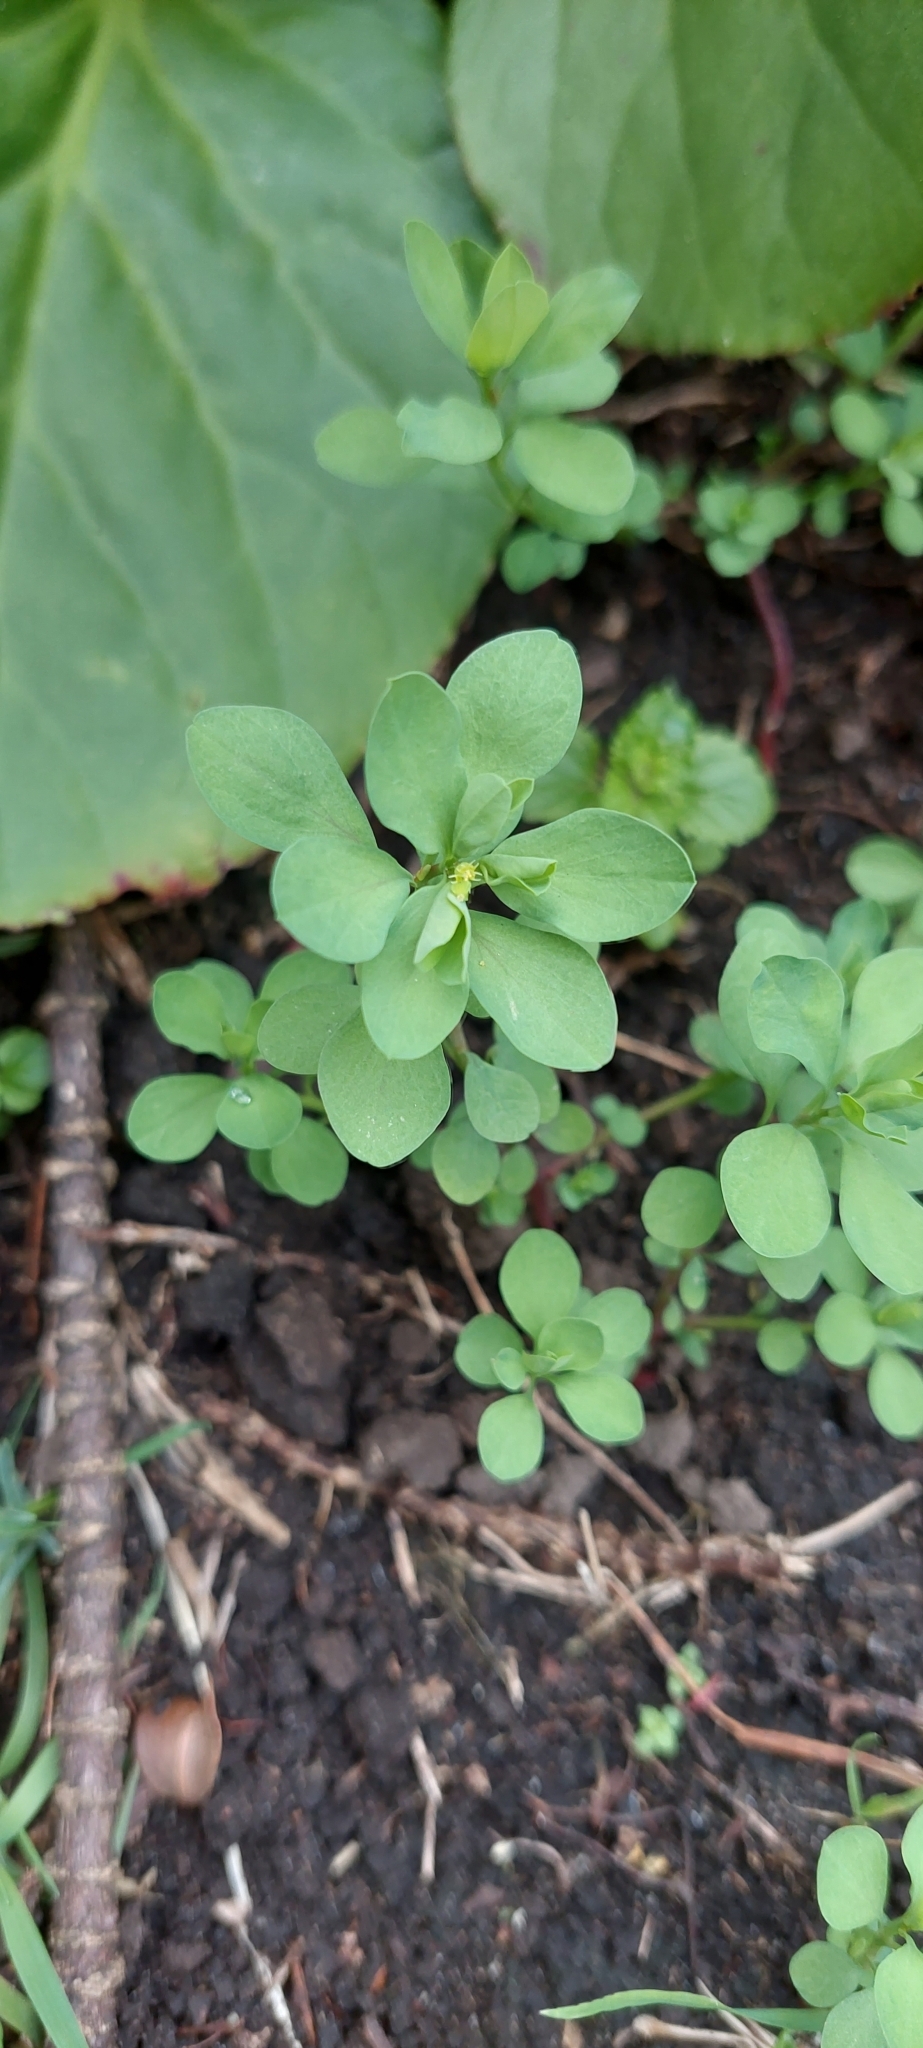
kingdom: Plantae
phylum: Tracheophyta
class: Magnoliopsida
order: Malpighiales
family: Euphorbiaceae
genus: Euphorbia
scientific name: Euphorbia peplus
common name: Petty spurge
